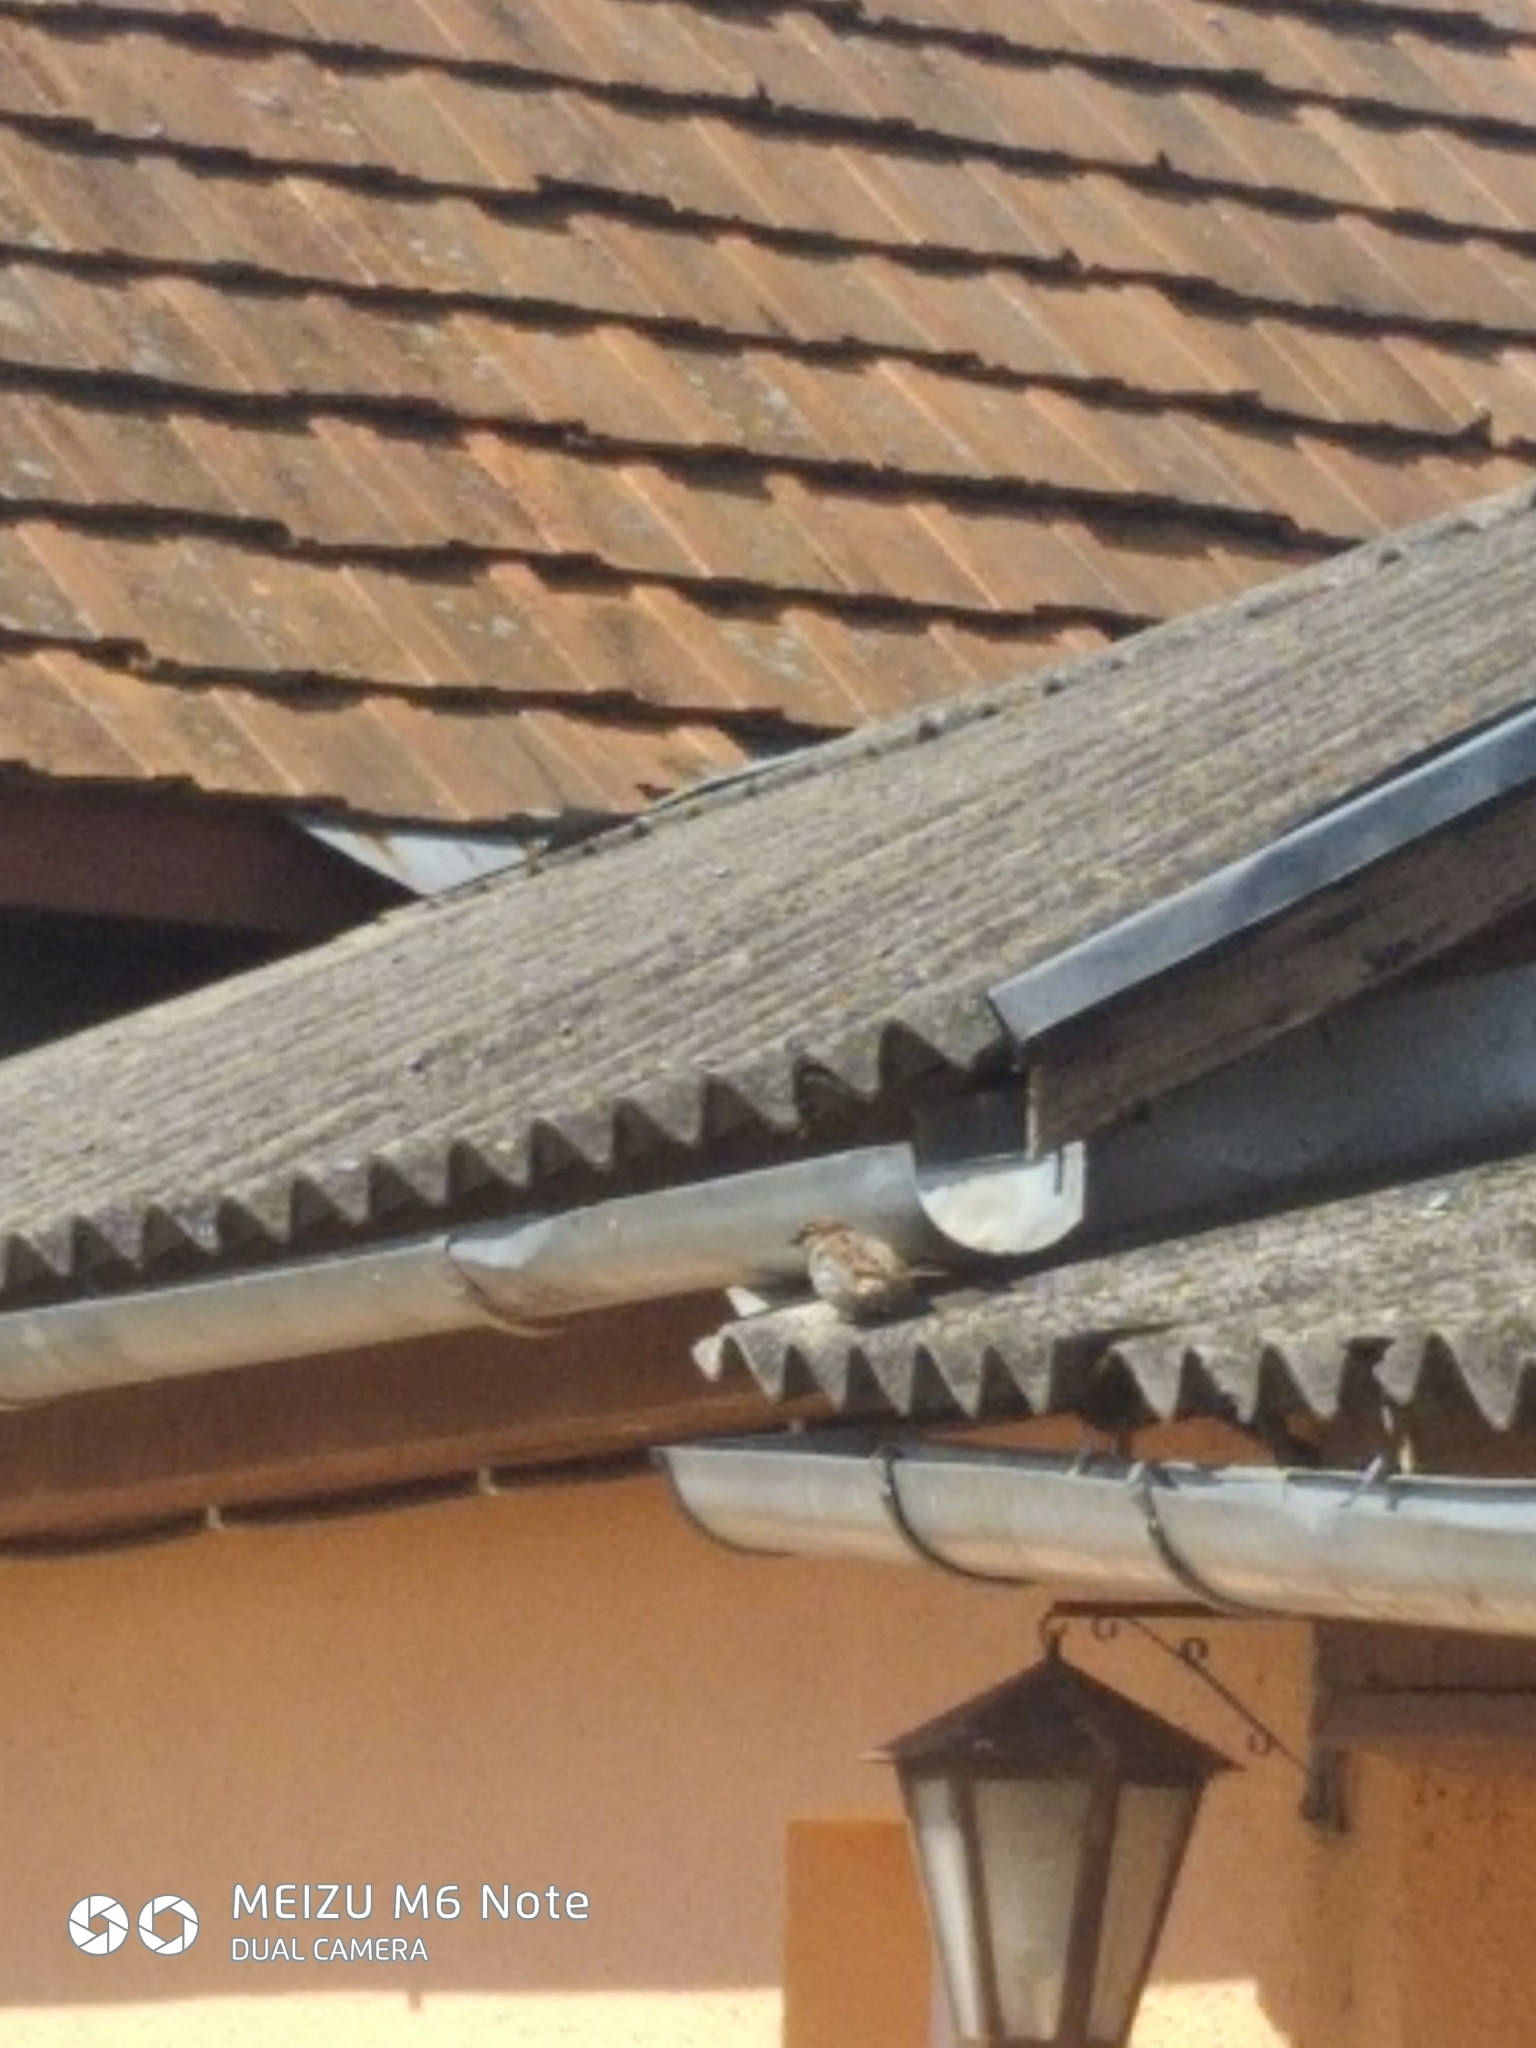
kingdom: Animalia
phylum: Chordata
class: Aves
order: Passeriformes
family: Passeridae
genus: Passer
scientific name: Passer domesticus
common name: House sparrow
